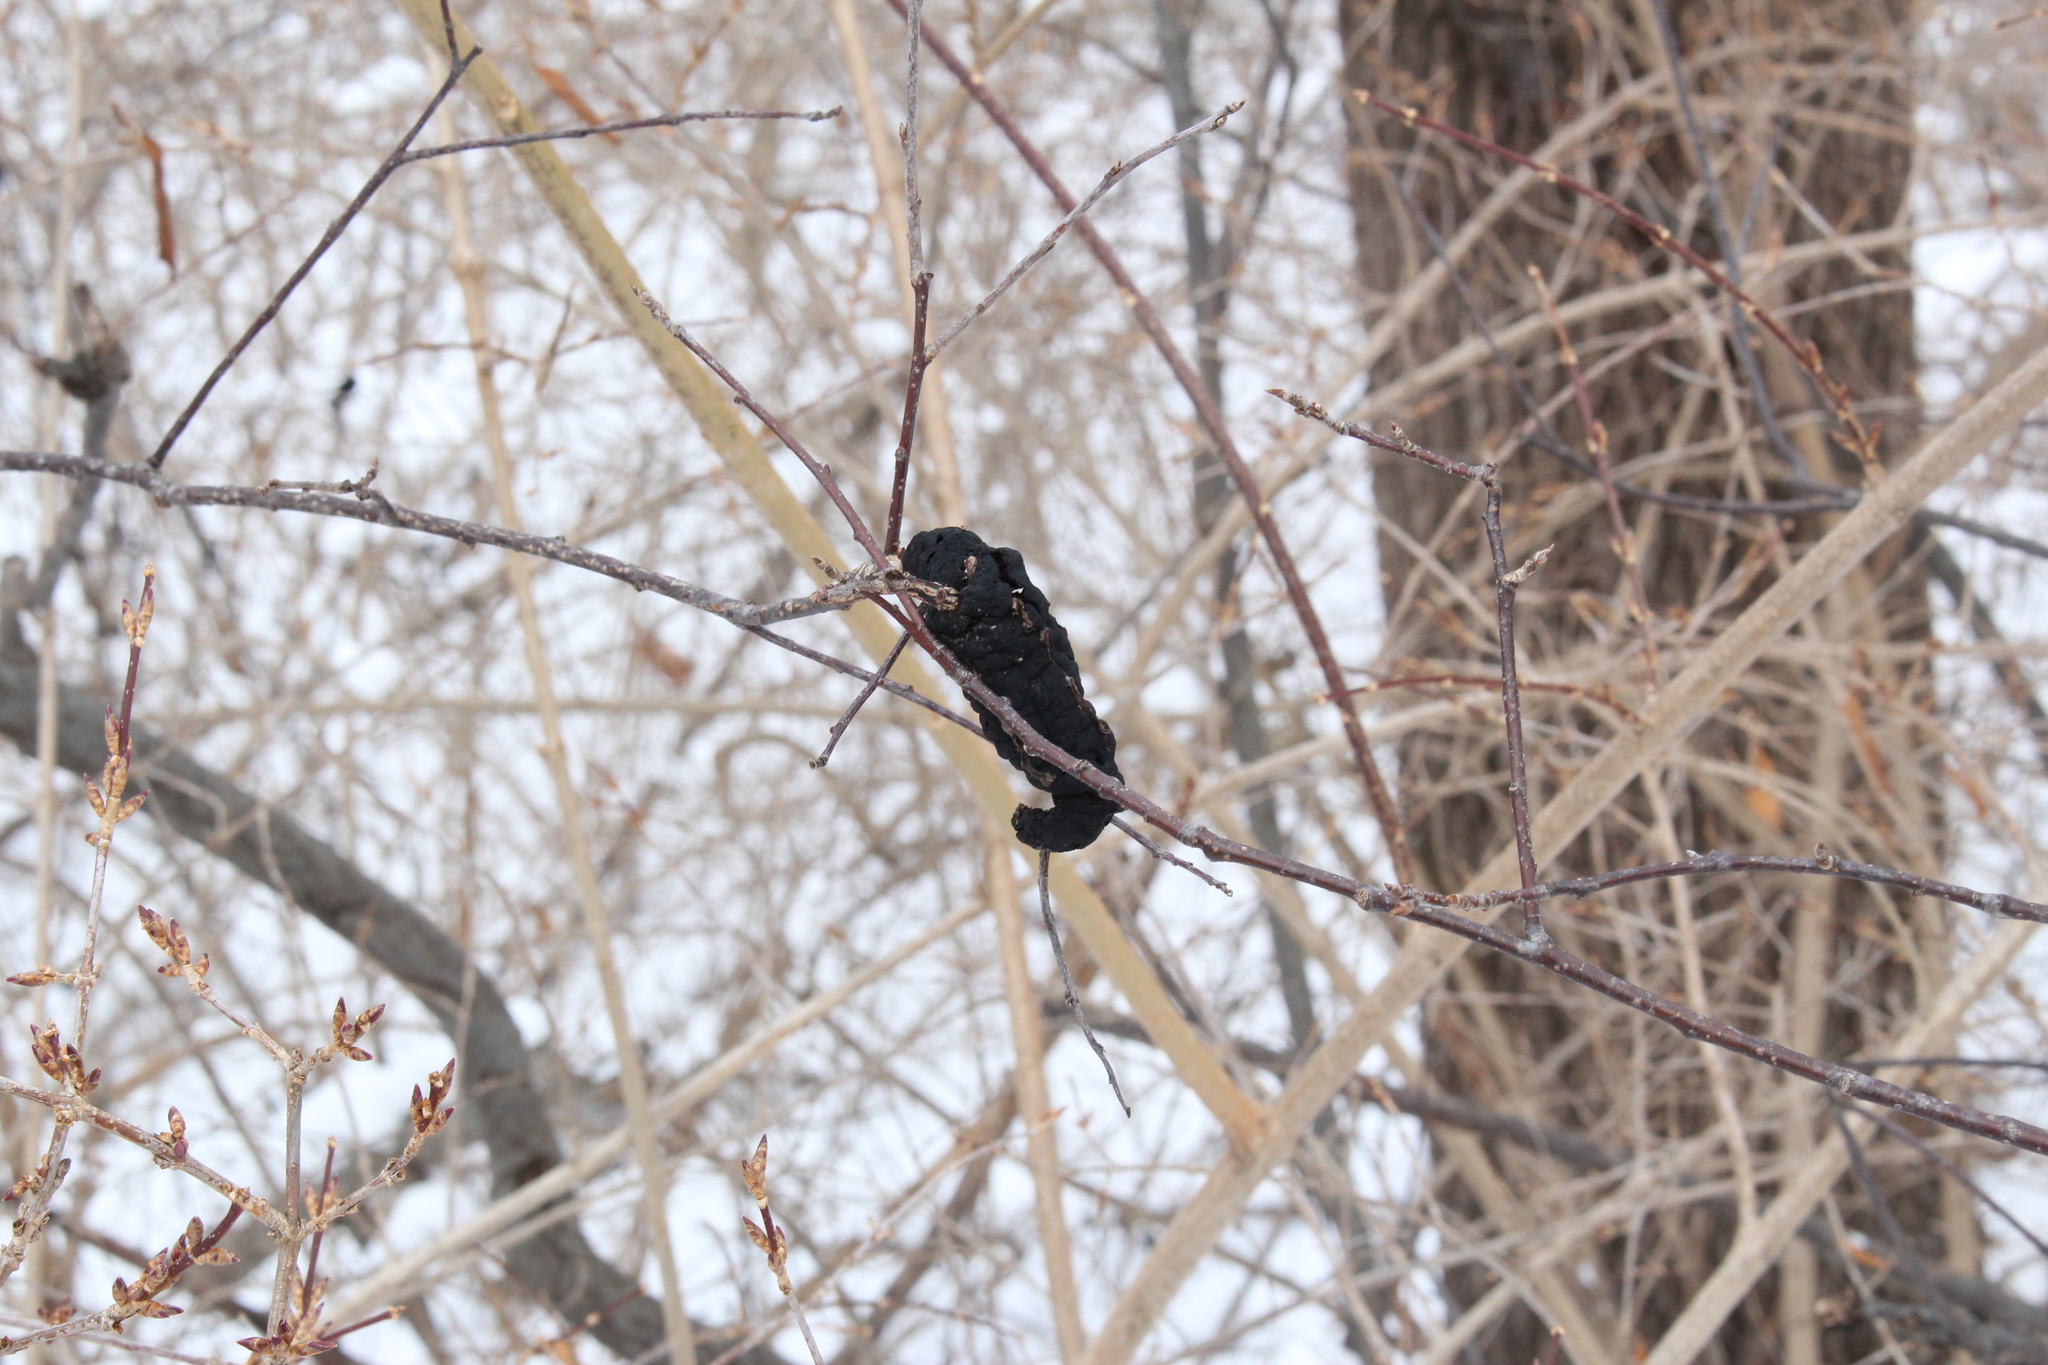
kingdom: Fungi
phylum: Ascomycota
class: Dothideomycetes
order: Venturiales
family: Venturiaceae
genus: Apiosporina
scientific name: Apiosporina morbosa
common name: Black knot
